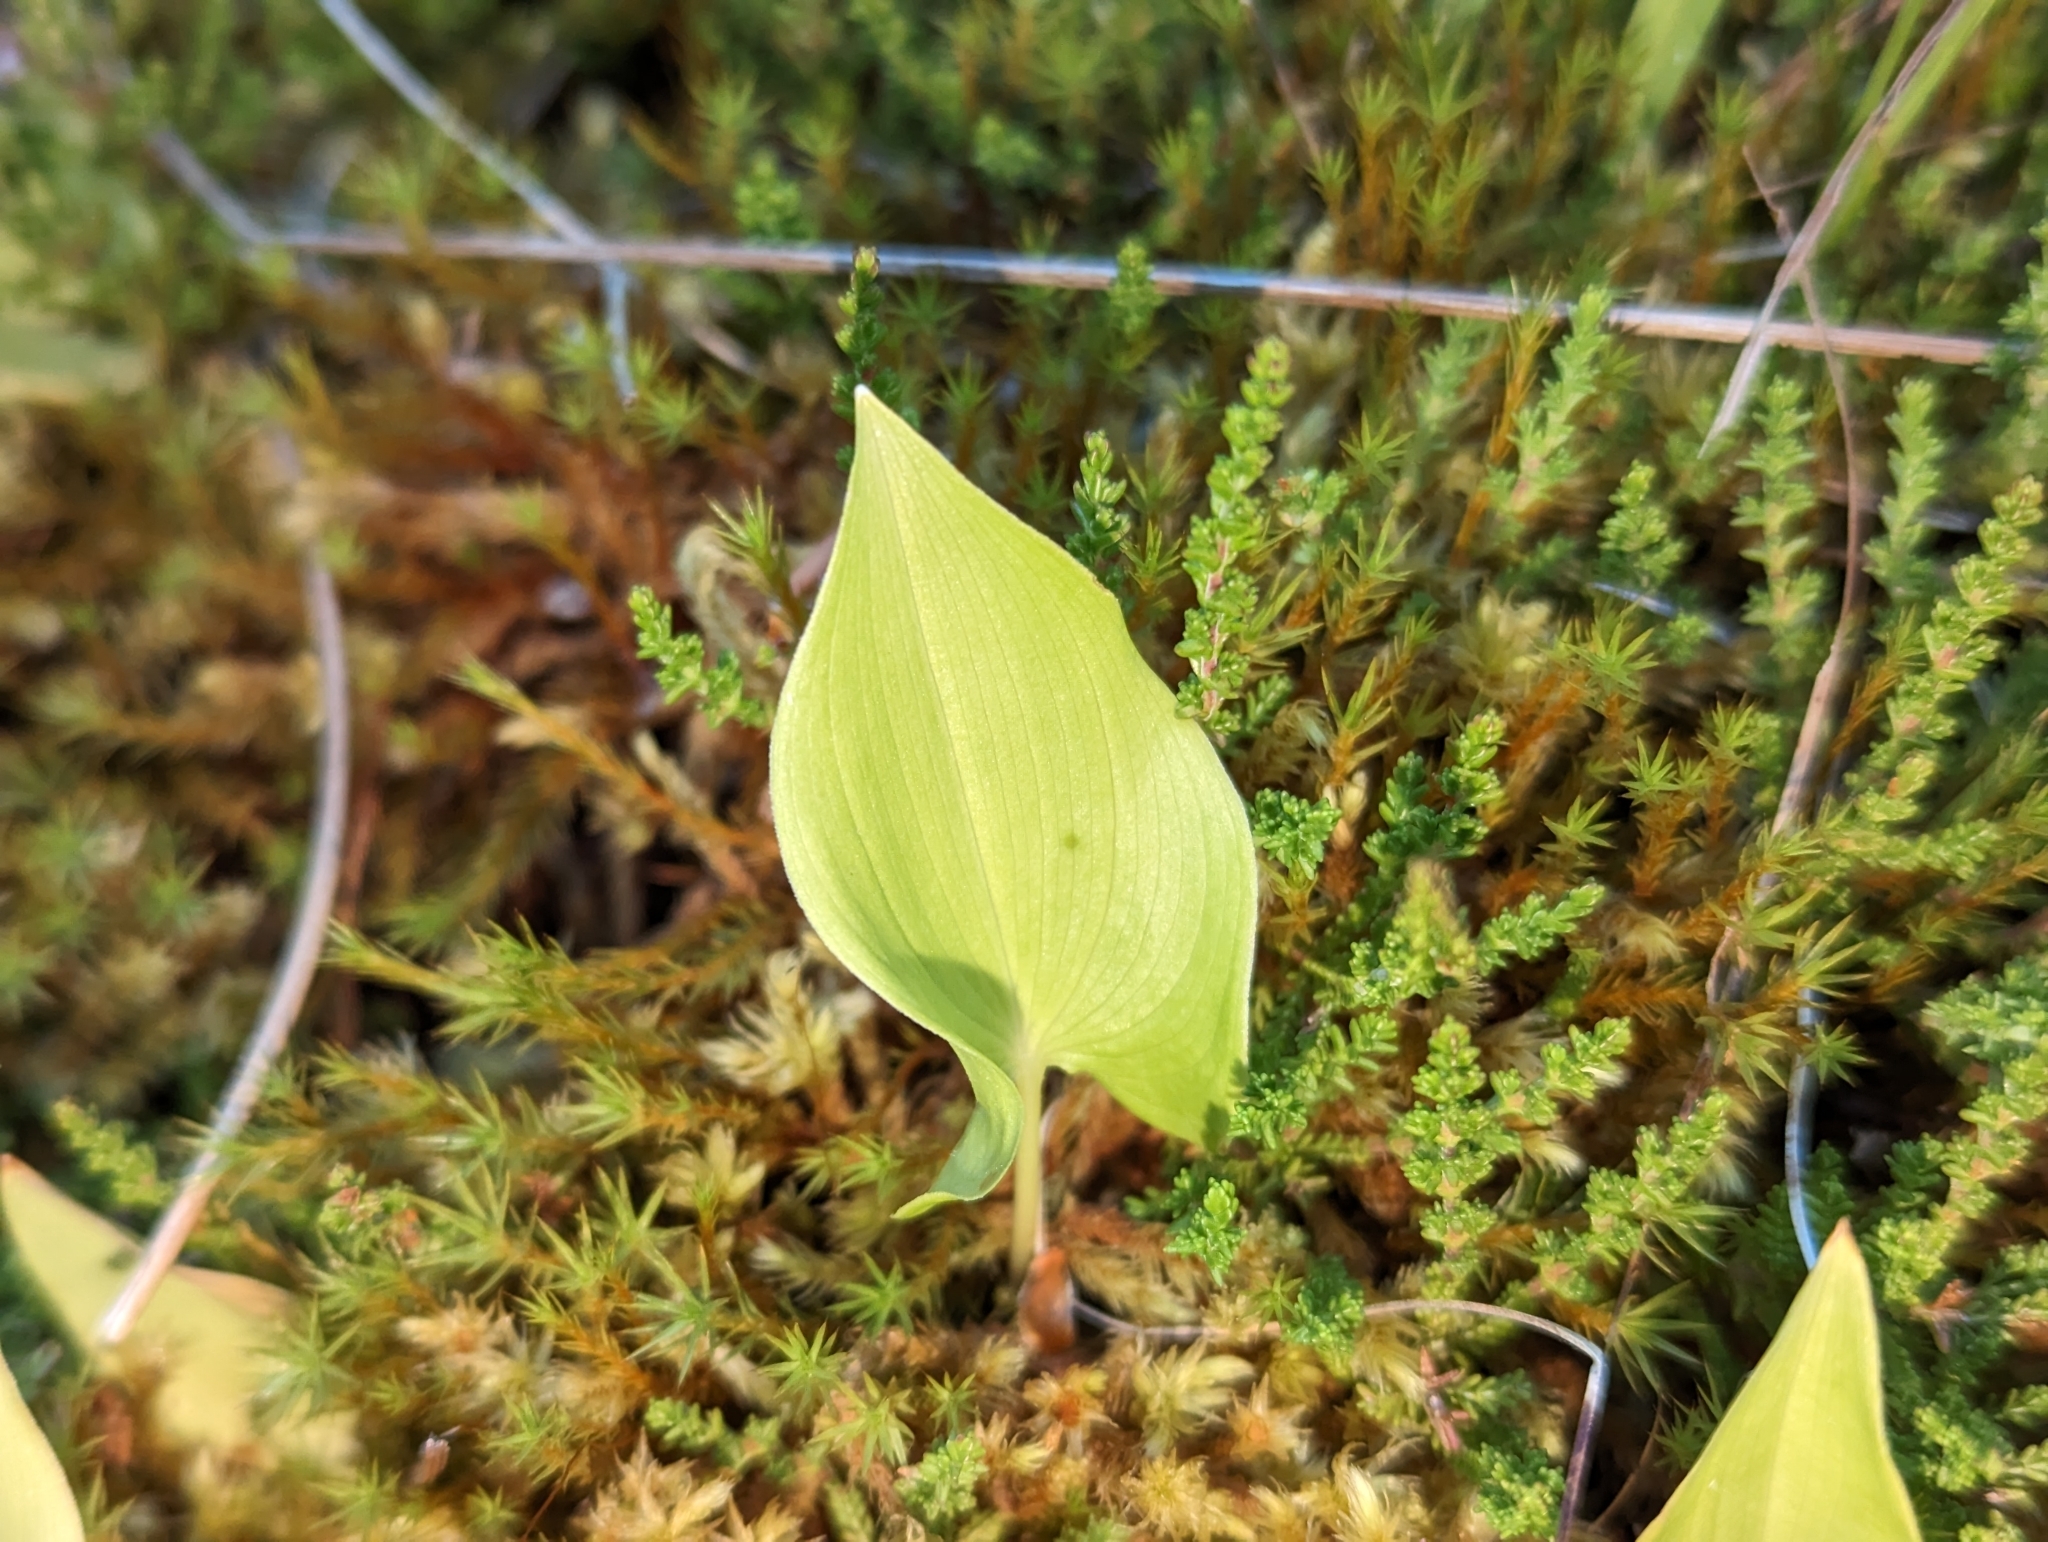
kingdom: Plantae
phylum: Tracheophyta
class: Liliopsida
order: Asparagales
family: Asparagaceae
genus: Maianthemum
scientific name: Maianthemum bifolium
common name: May lily
